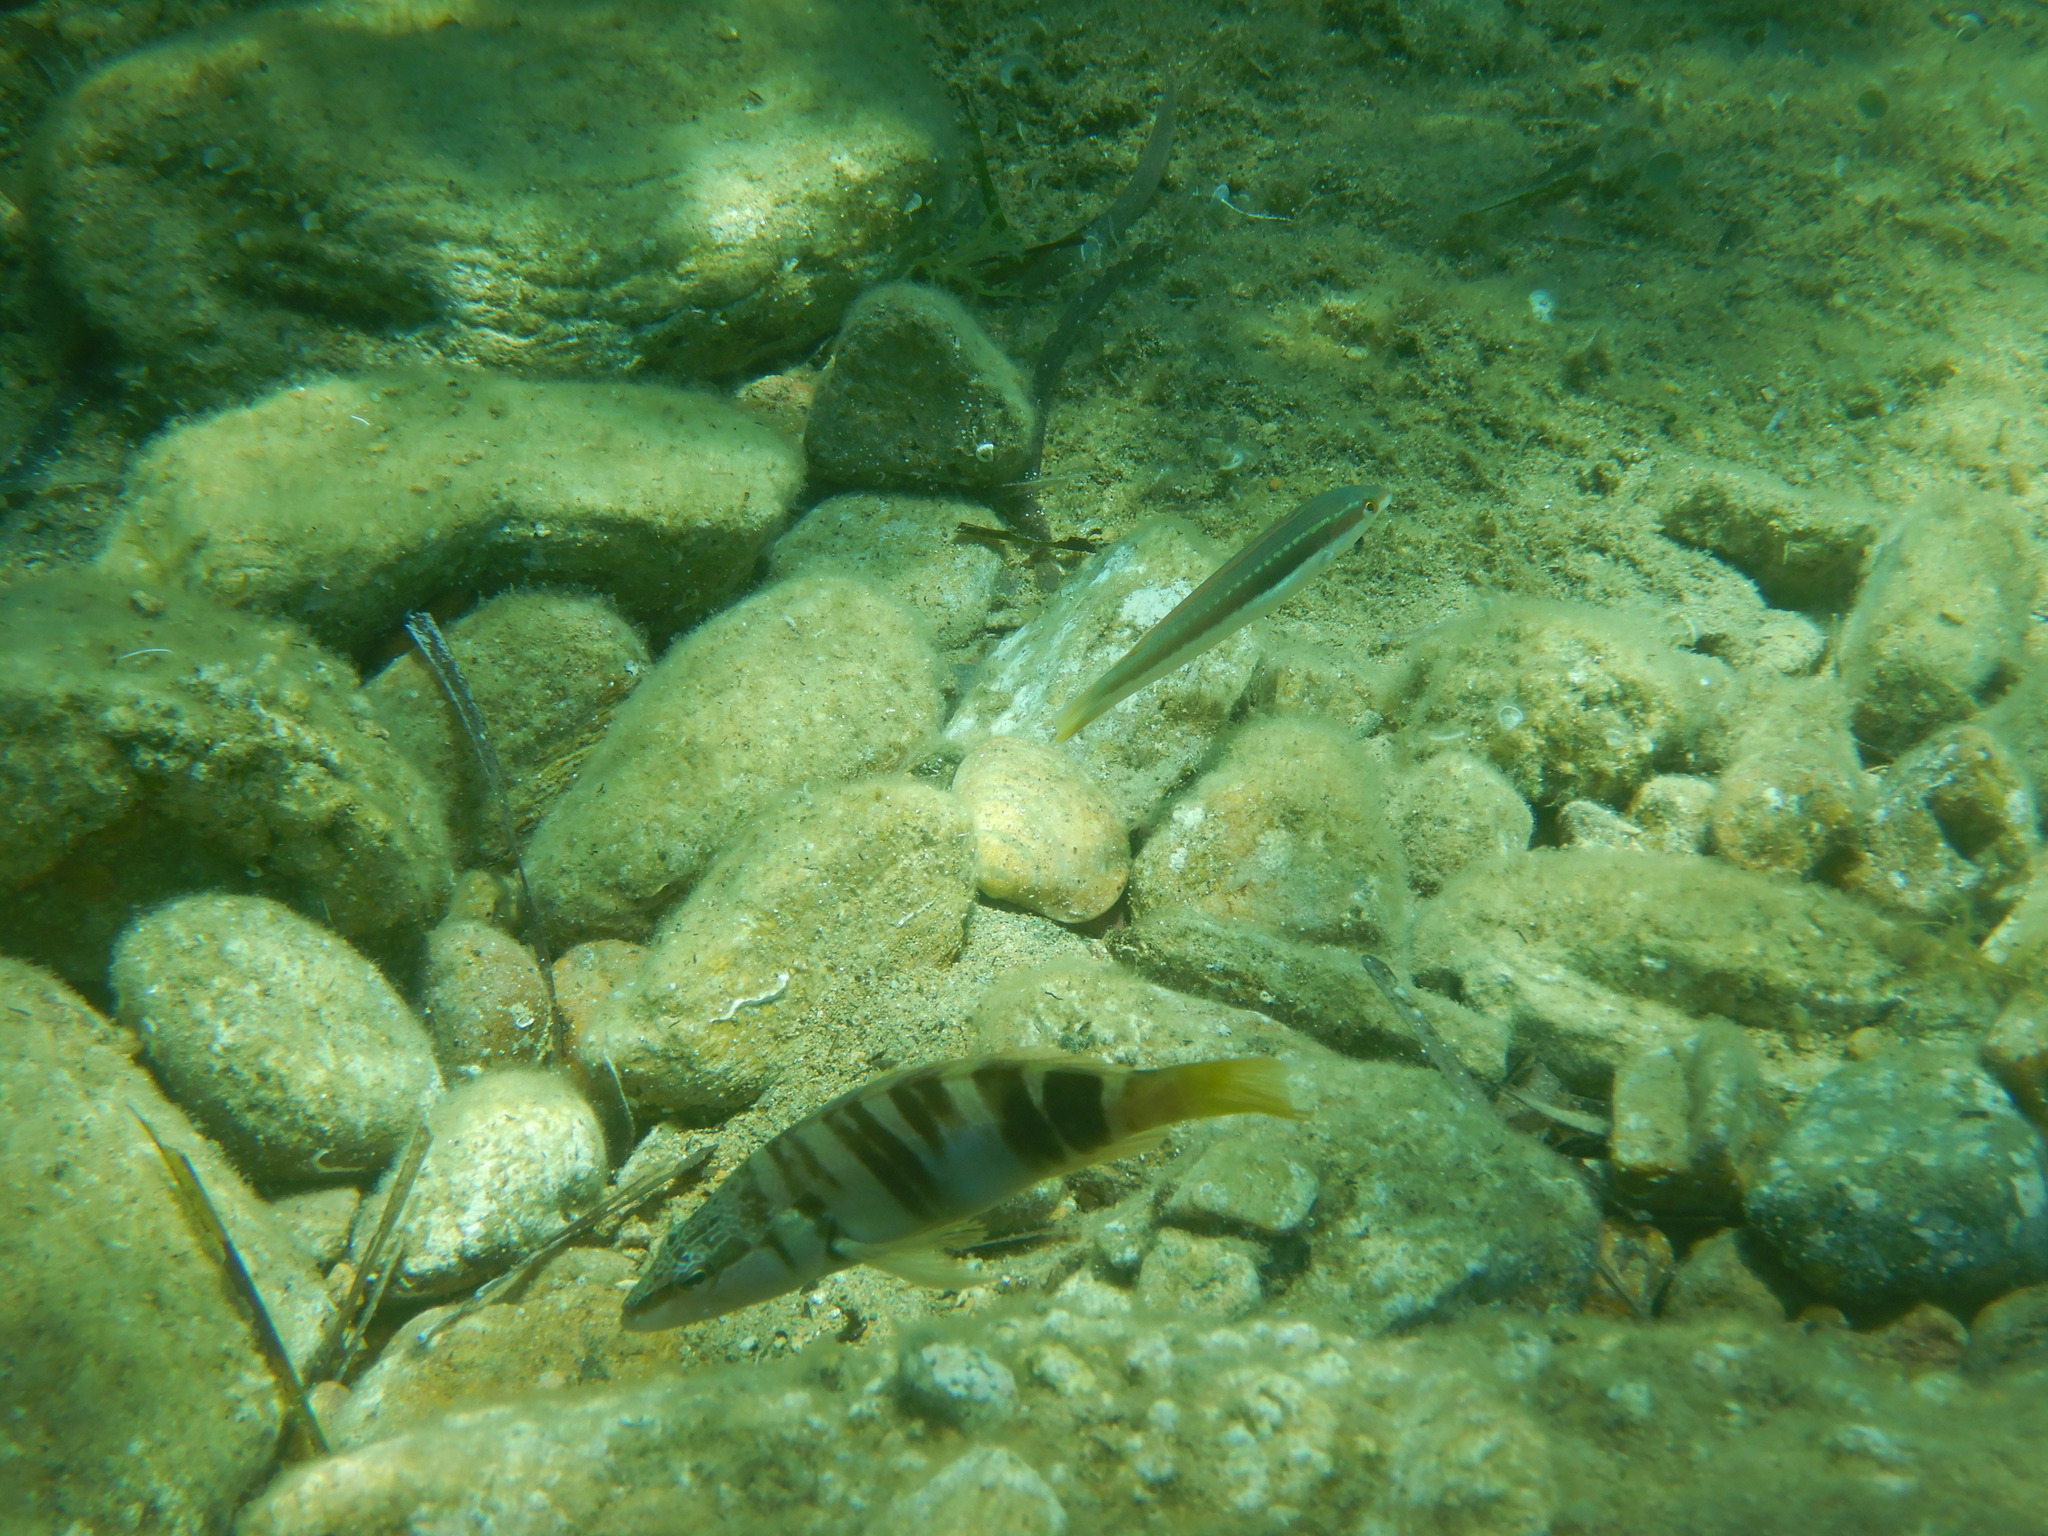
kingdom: Animalia
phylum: Chordata
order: Perciformes
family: Serranidae
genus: Serranus
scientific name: Serranus scriba
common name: Painted comber
